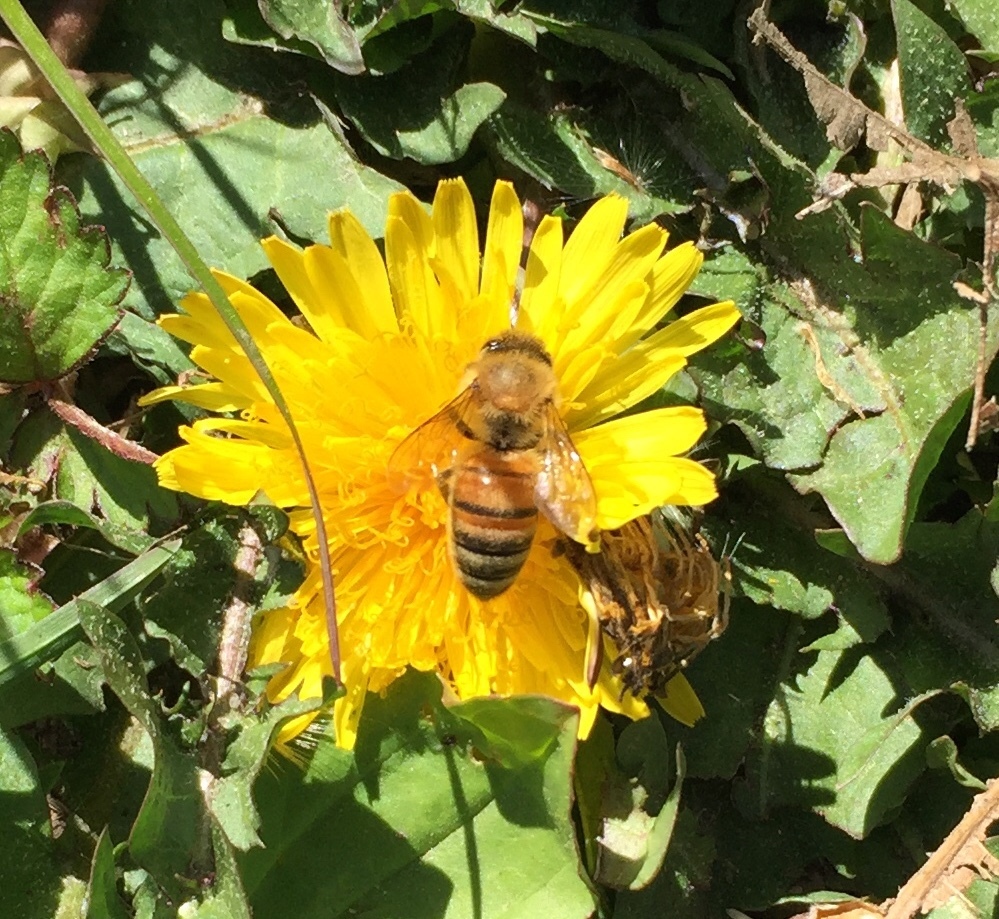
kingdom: Animalia
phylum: Arthropoda
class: Insecta
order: Hymenoptera
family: Apidae
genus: Apis
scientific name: Apis mellifera
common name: Honey bee
